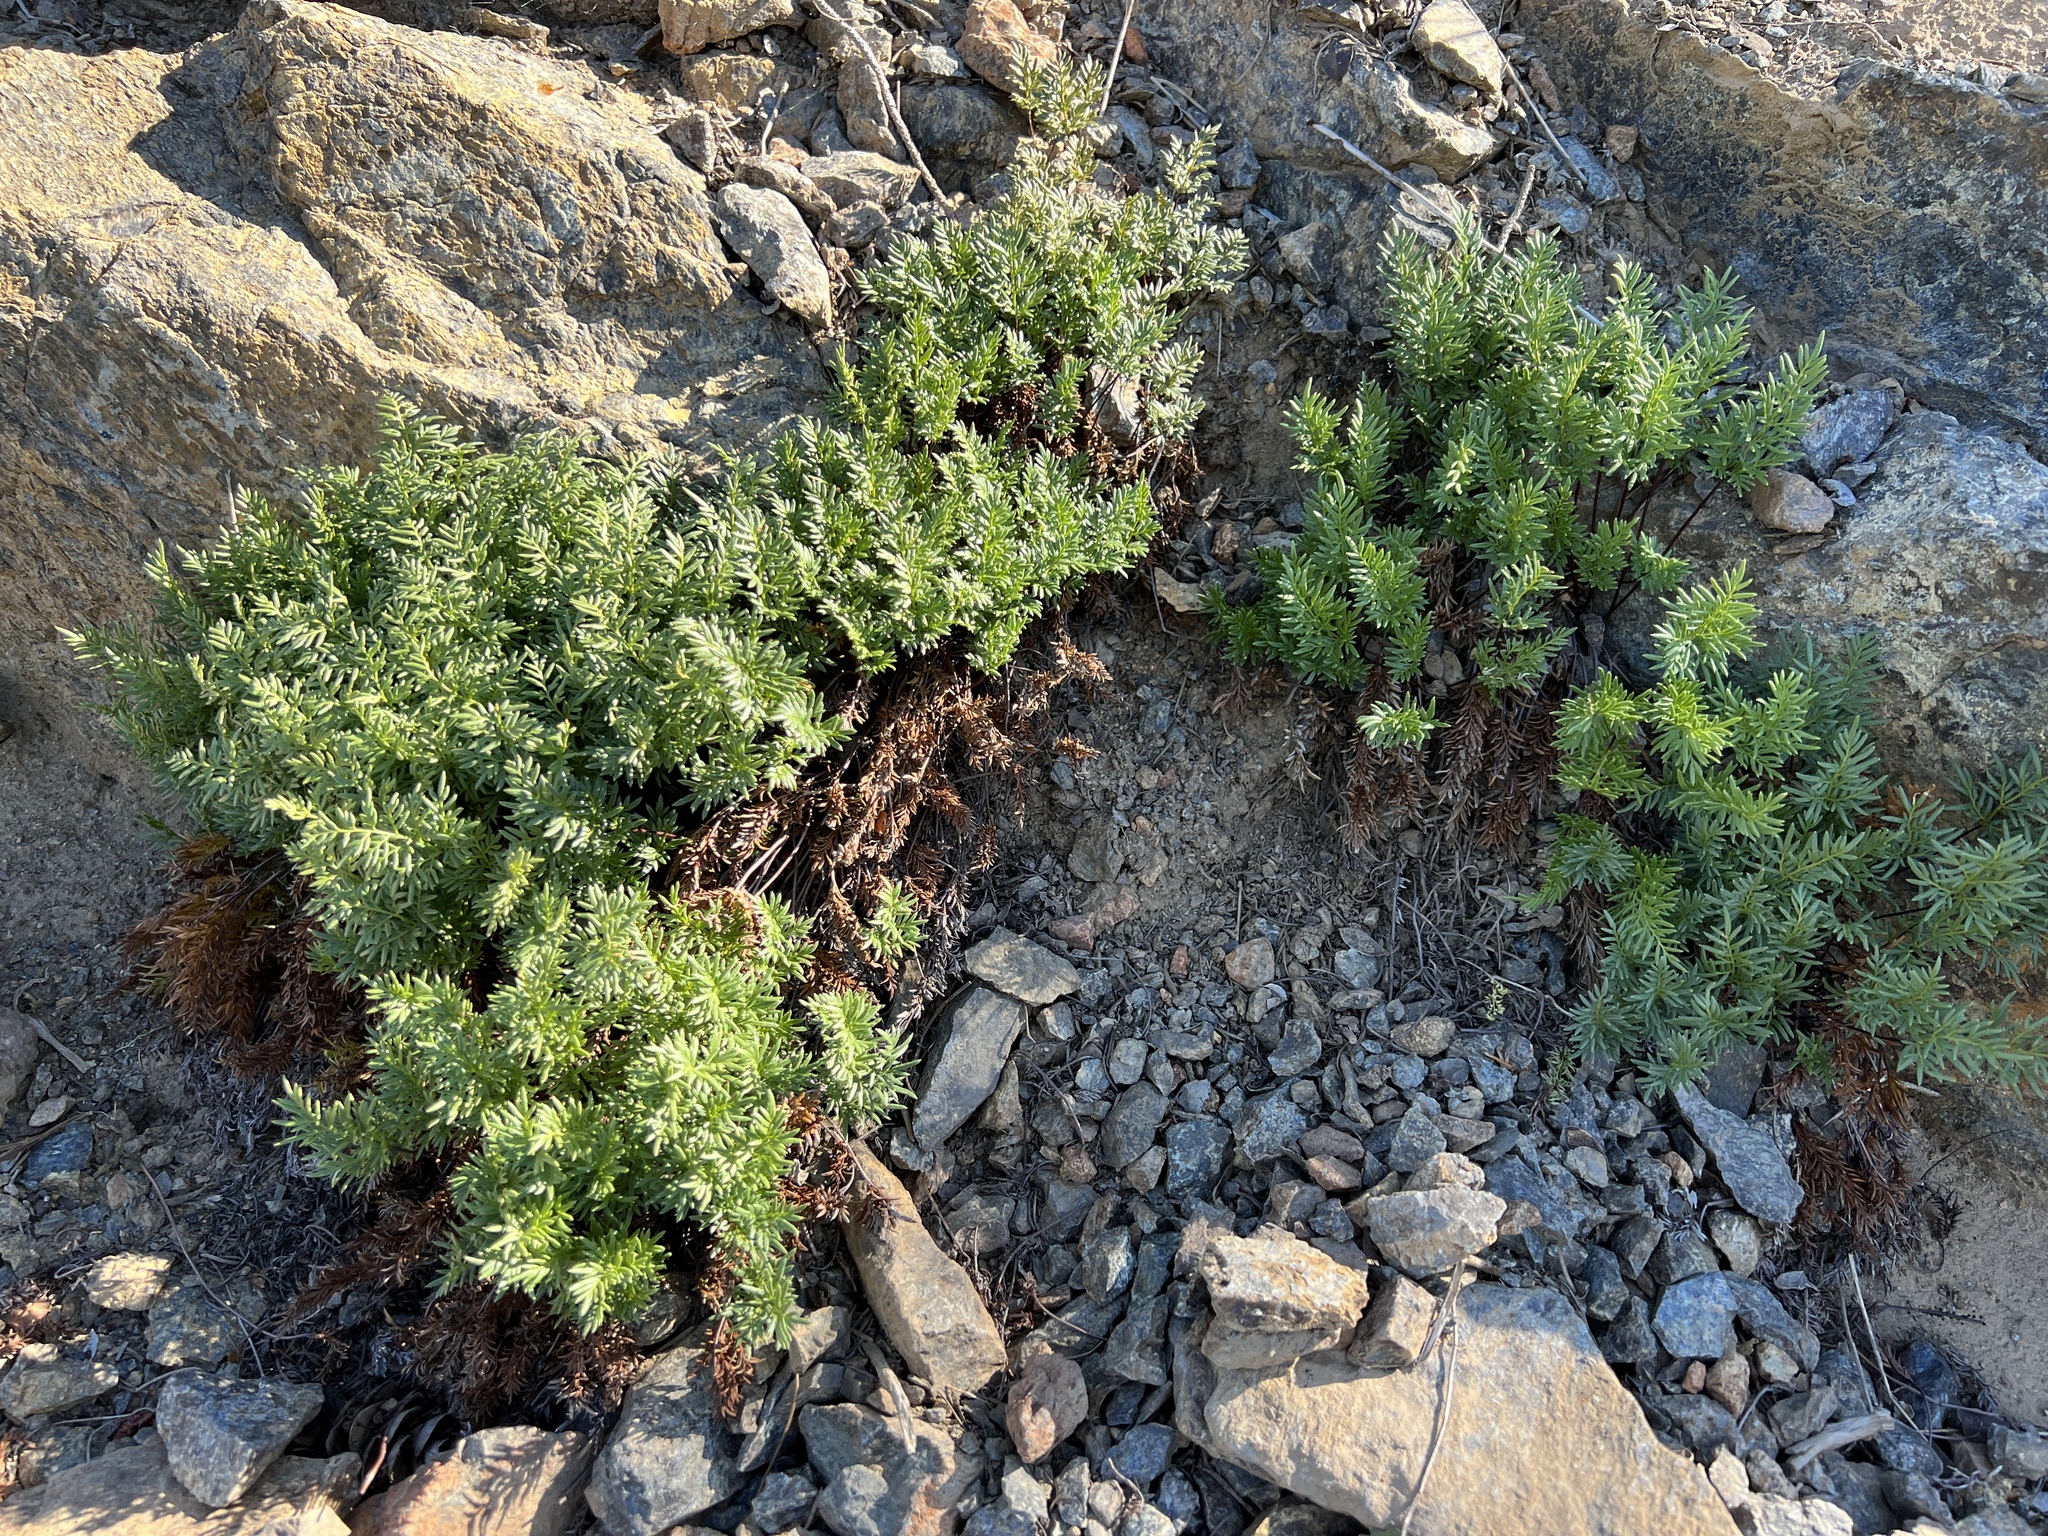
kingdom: Plantae
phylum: Tracheophyta
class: Polypodiopsida
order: Polypodiales
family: Pteridaceae
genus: Aspidotis
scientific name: Aspidotis densa
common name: Indian's dream
